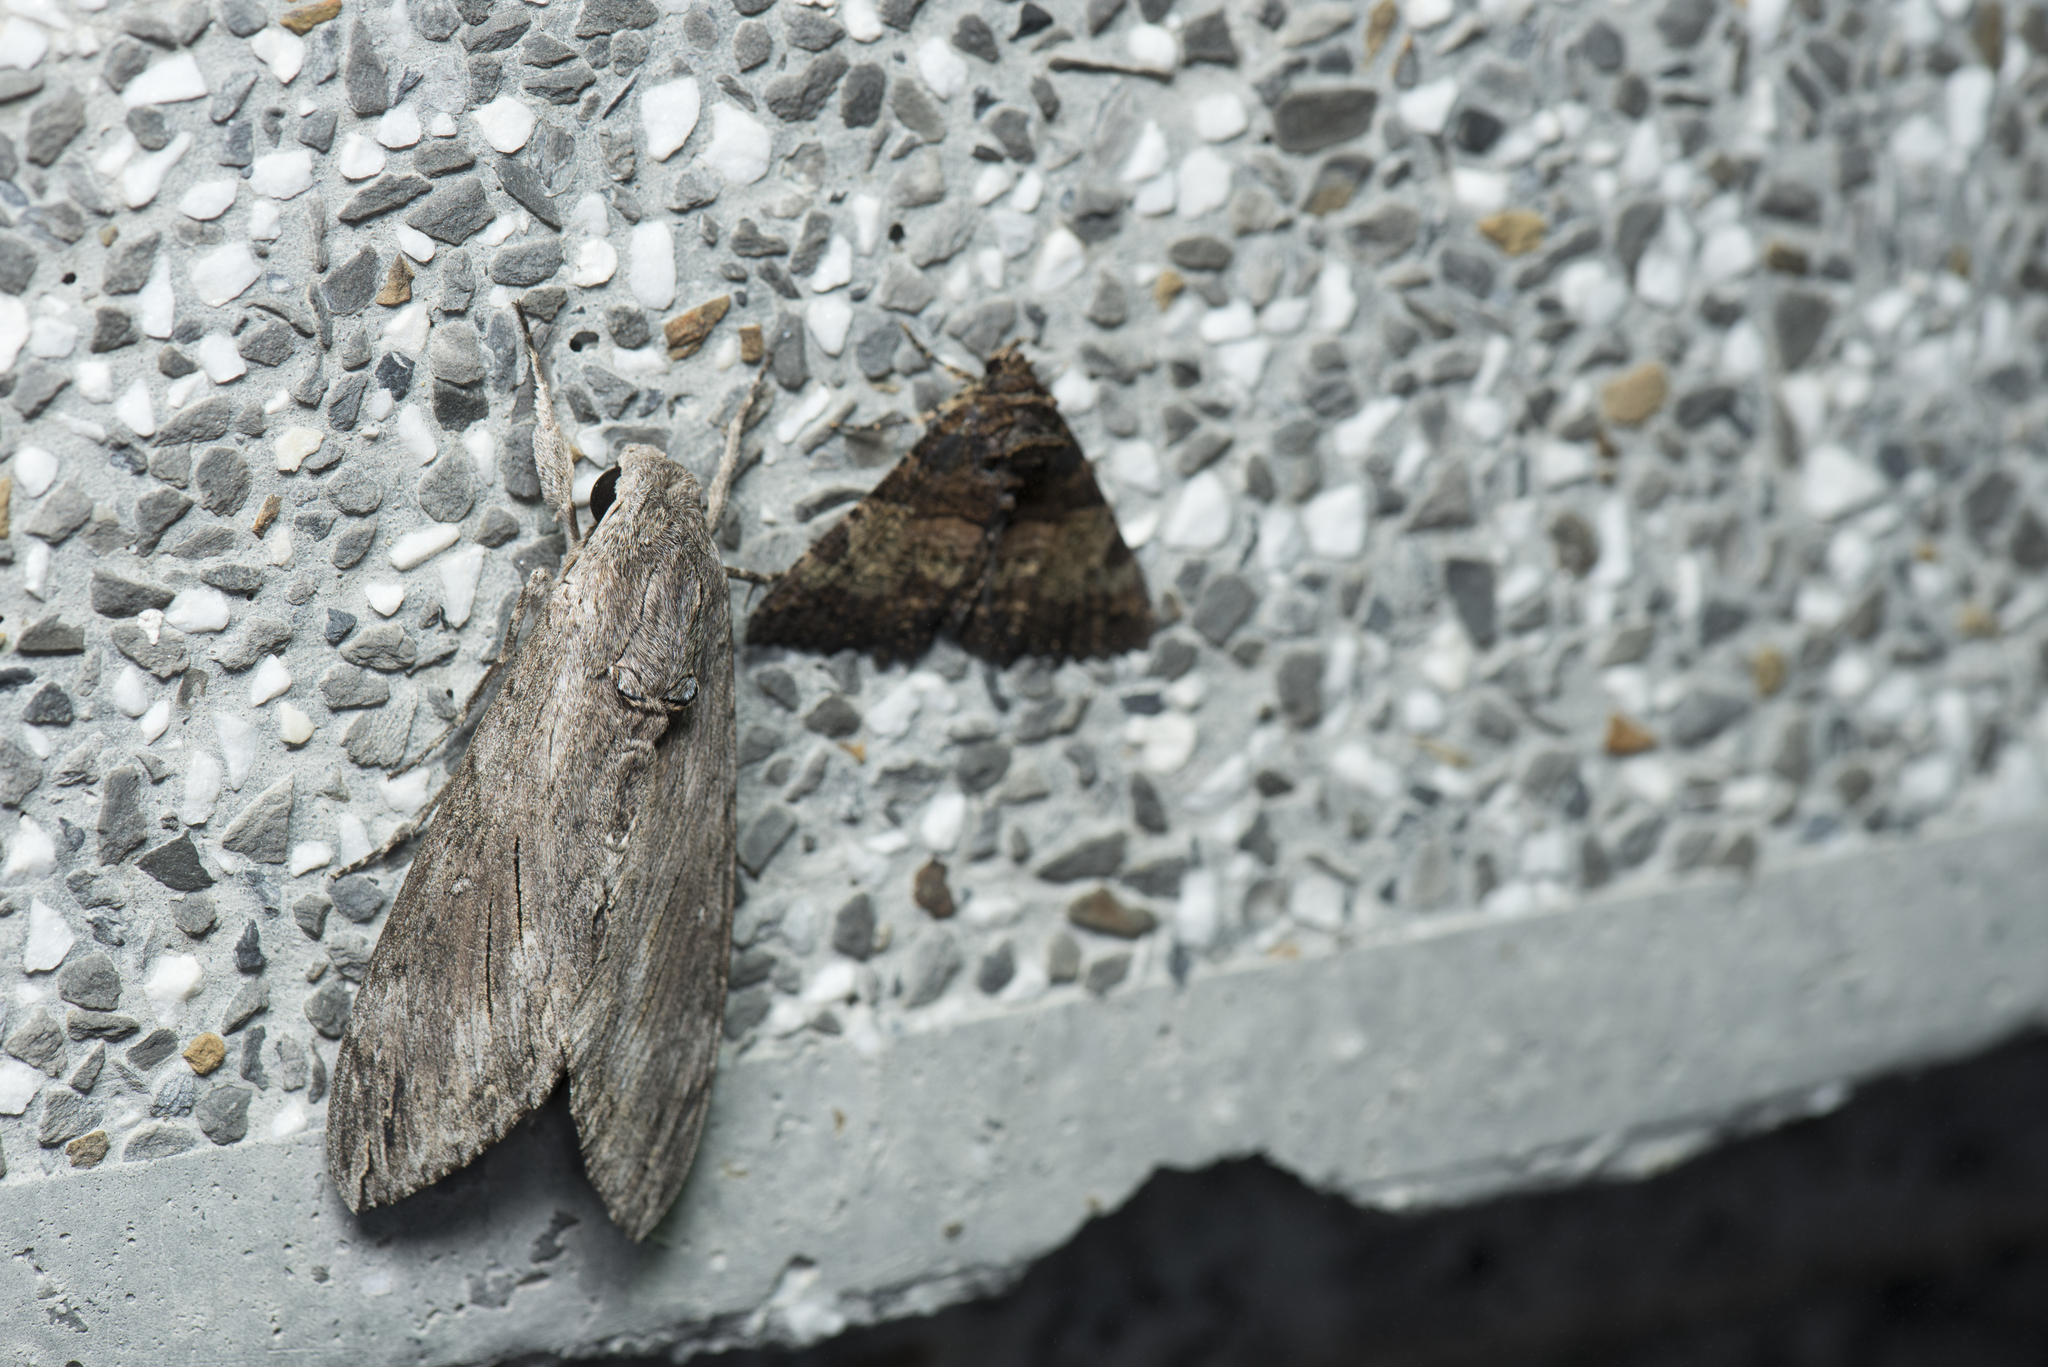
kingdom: Animalia
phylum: Arthropoda
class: Insecta
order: Lepidoptera
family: Sphingidae
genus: Agrius
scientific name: Agrius convolvuli
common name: Convolvulus hawkmoth
